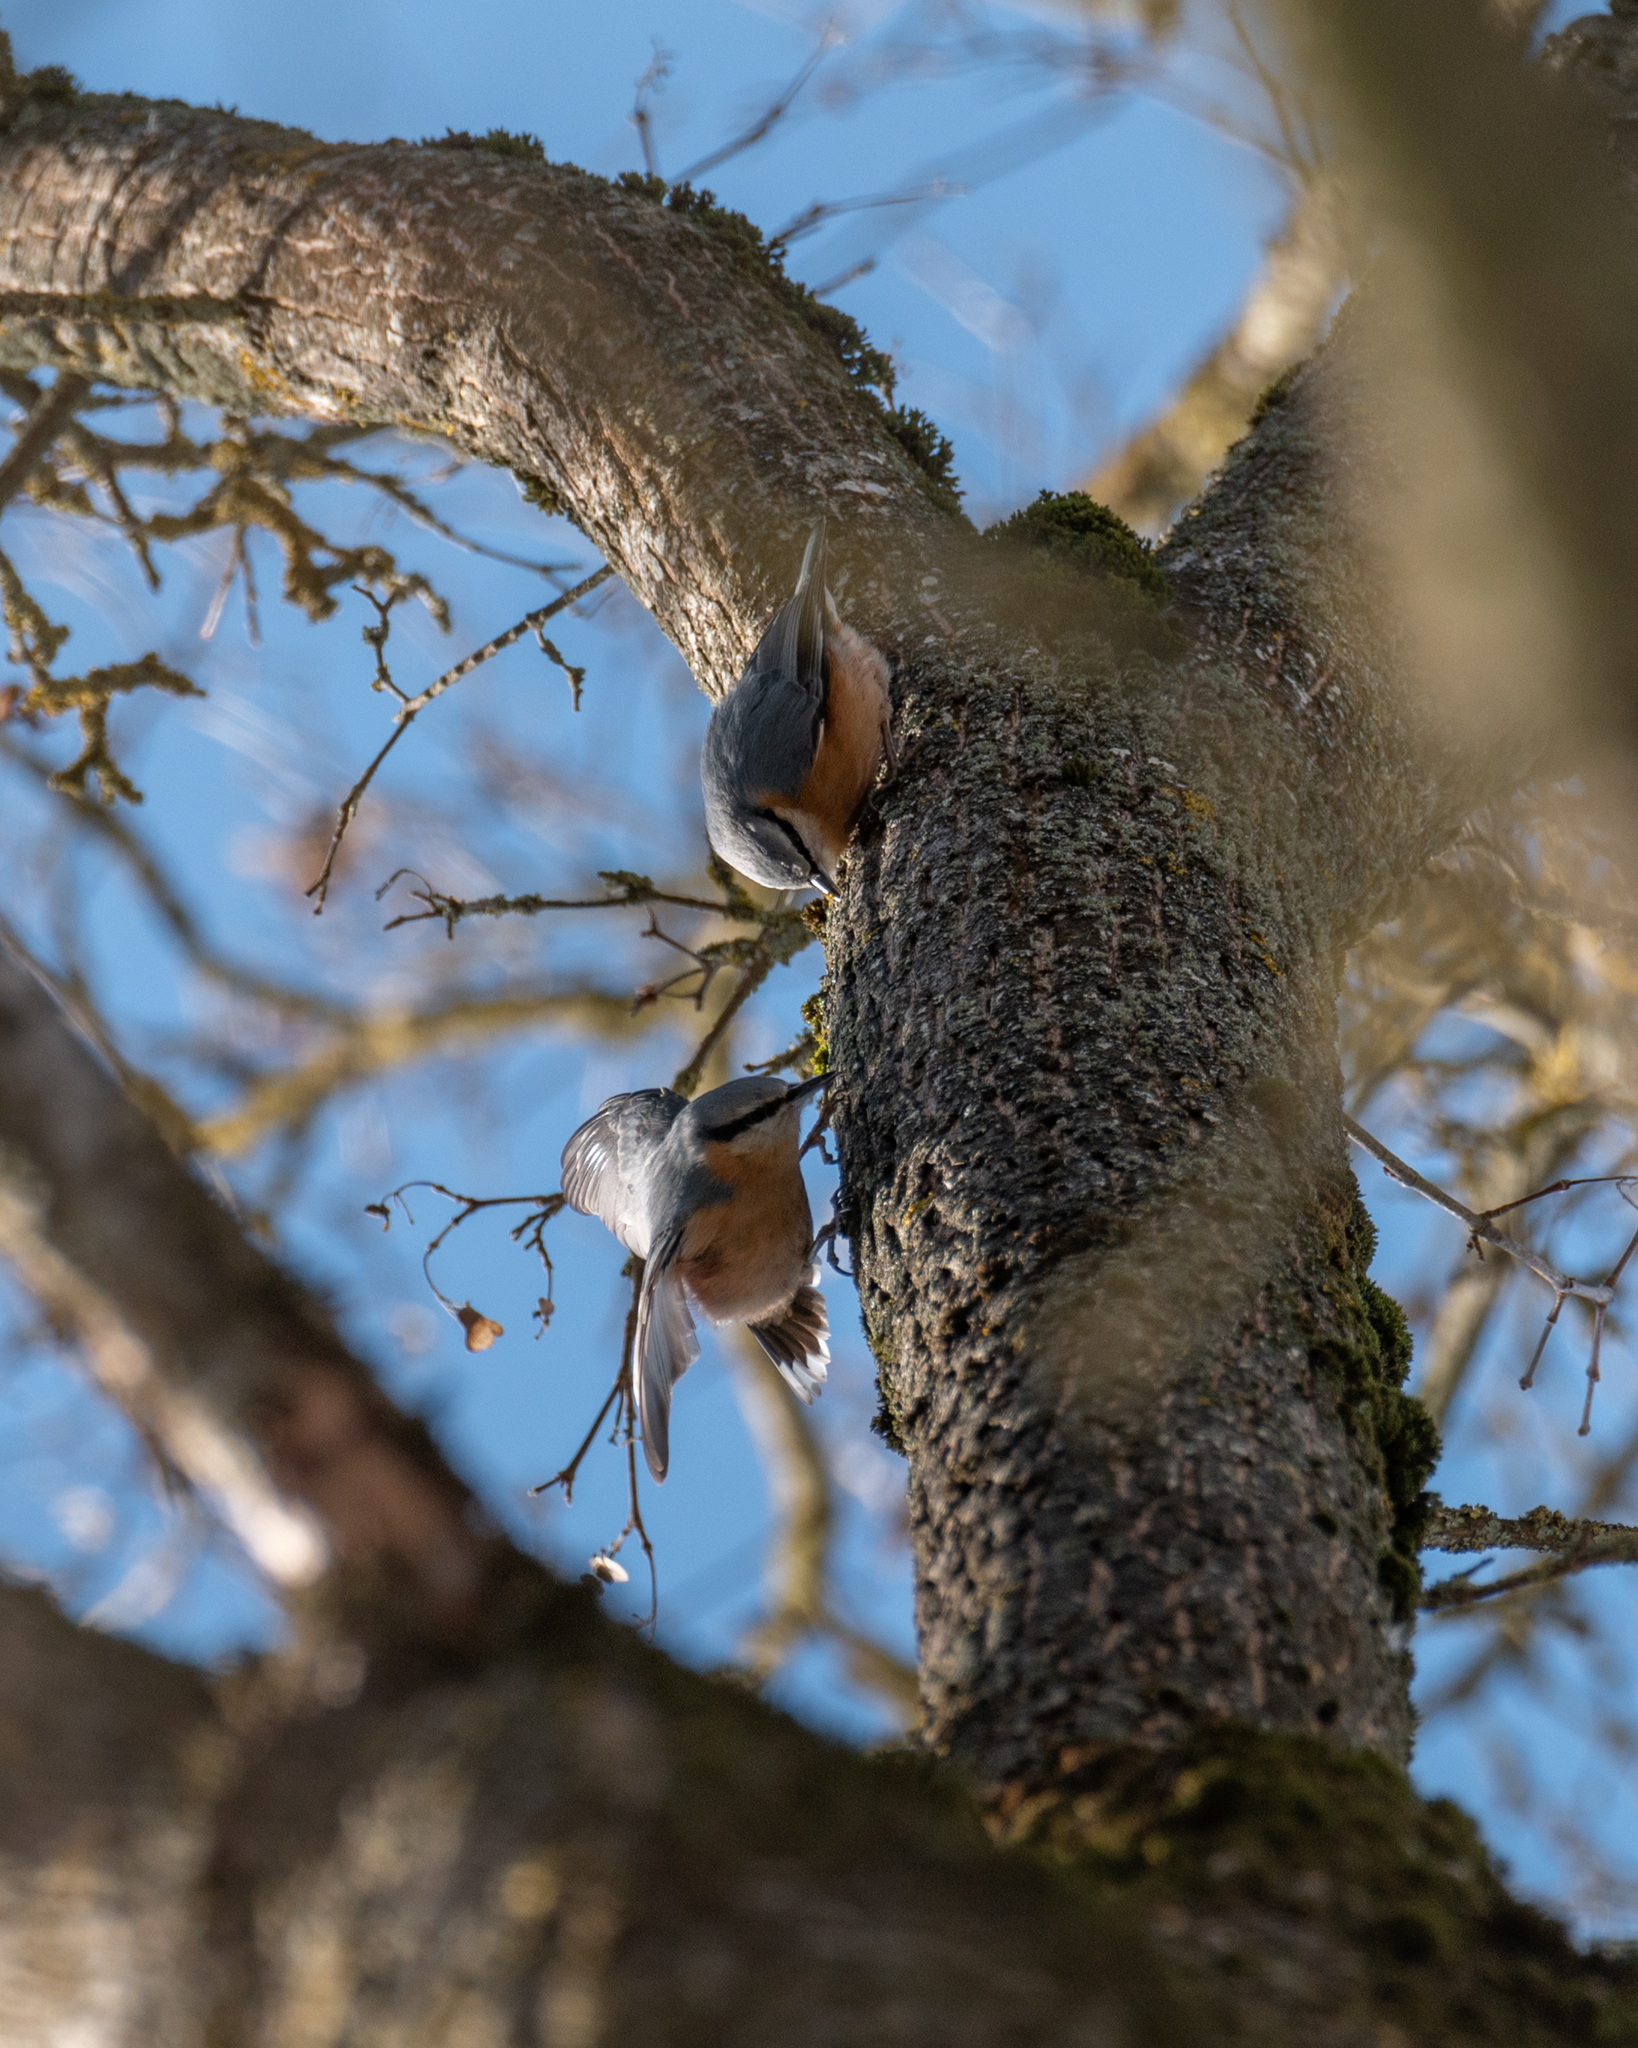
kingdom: Animalia
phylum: Chordata
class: Aves
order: Passeriformes
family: Sittidae
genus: Sitta
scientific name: Sitta europaea
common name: Eurasian nuthatch
